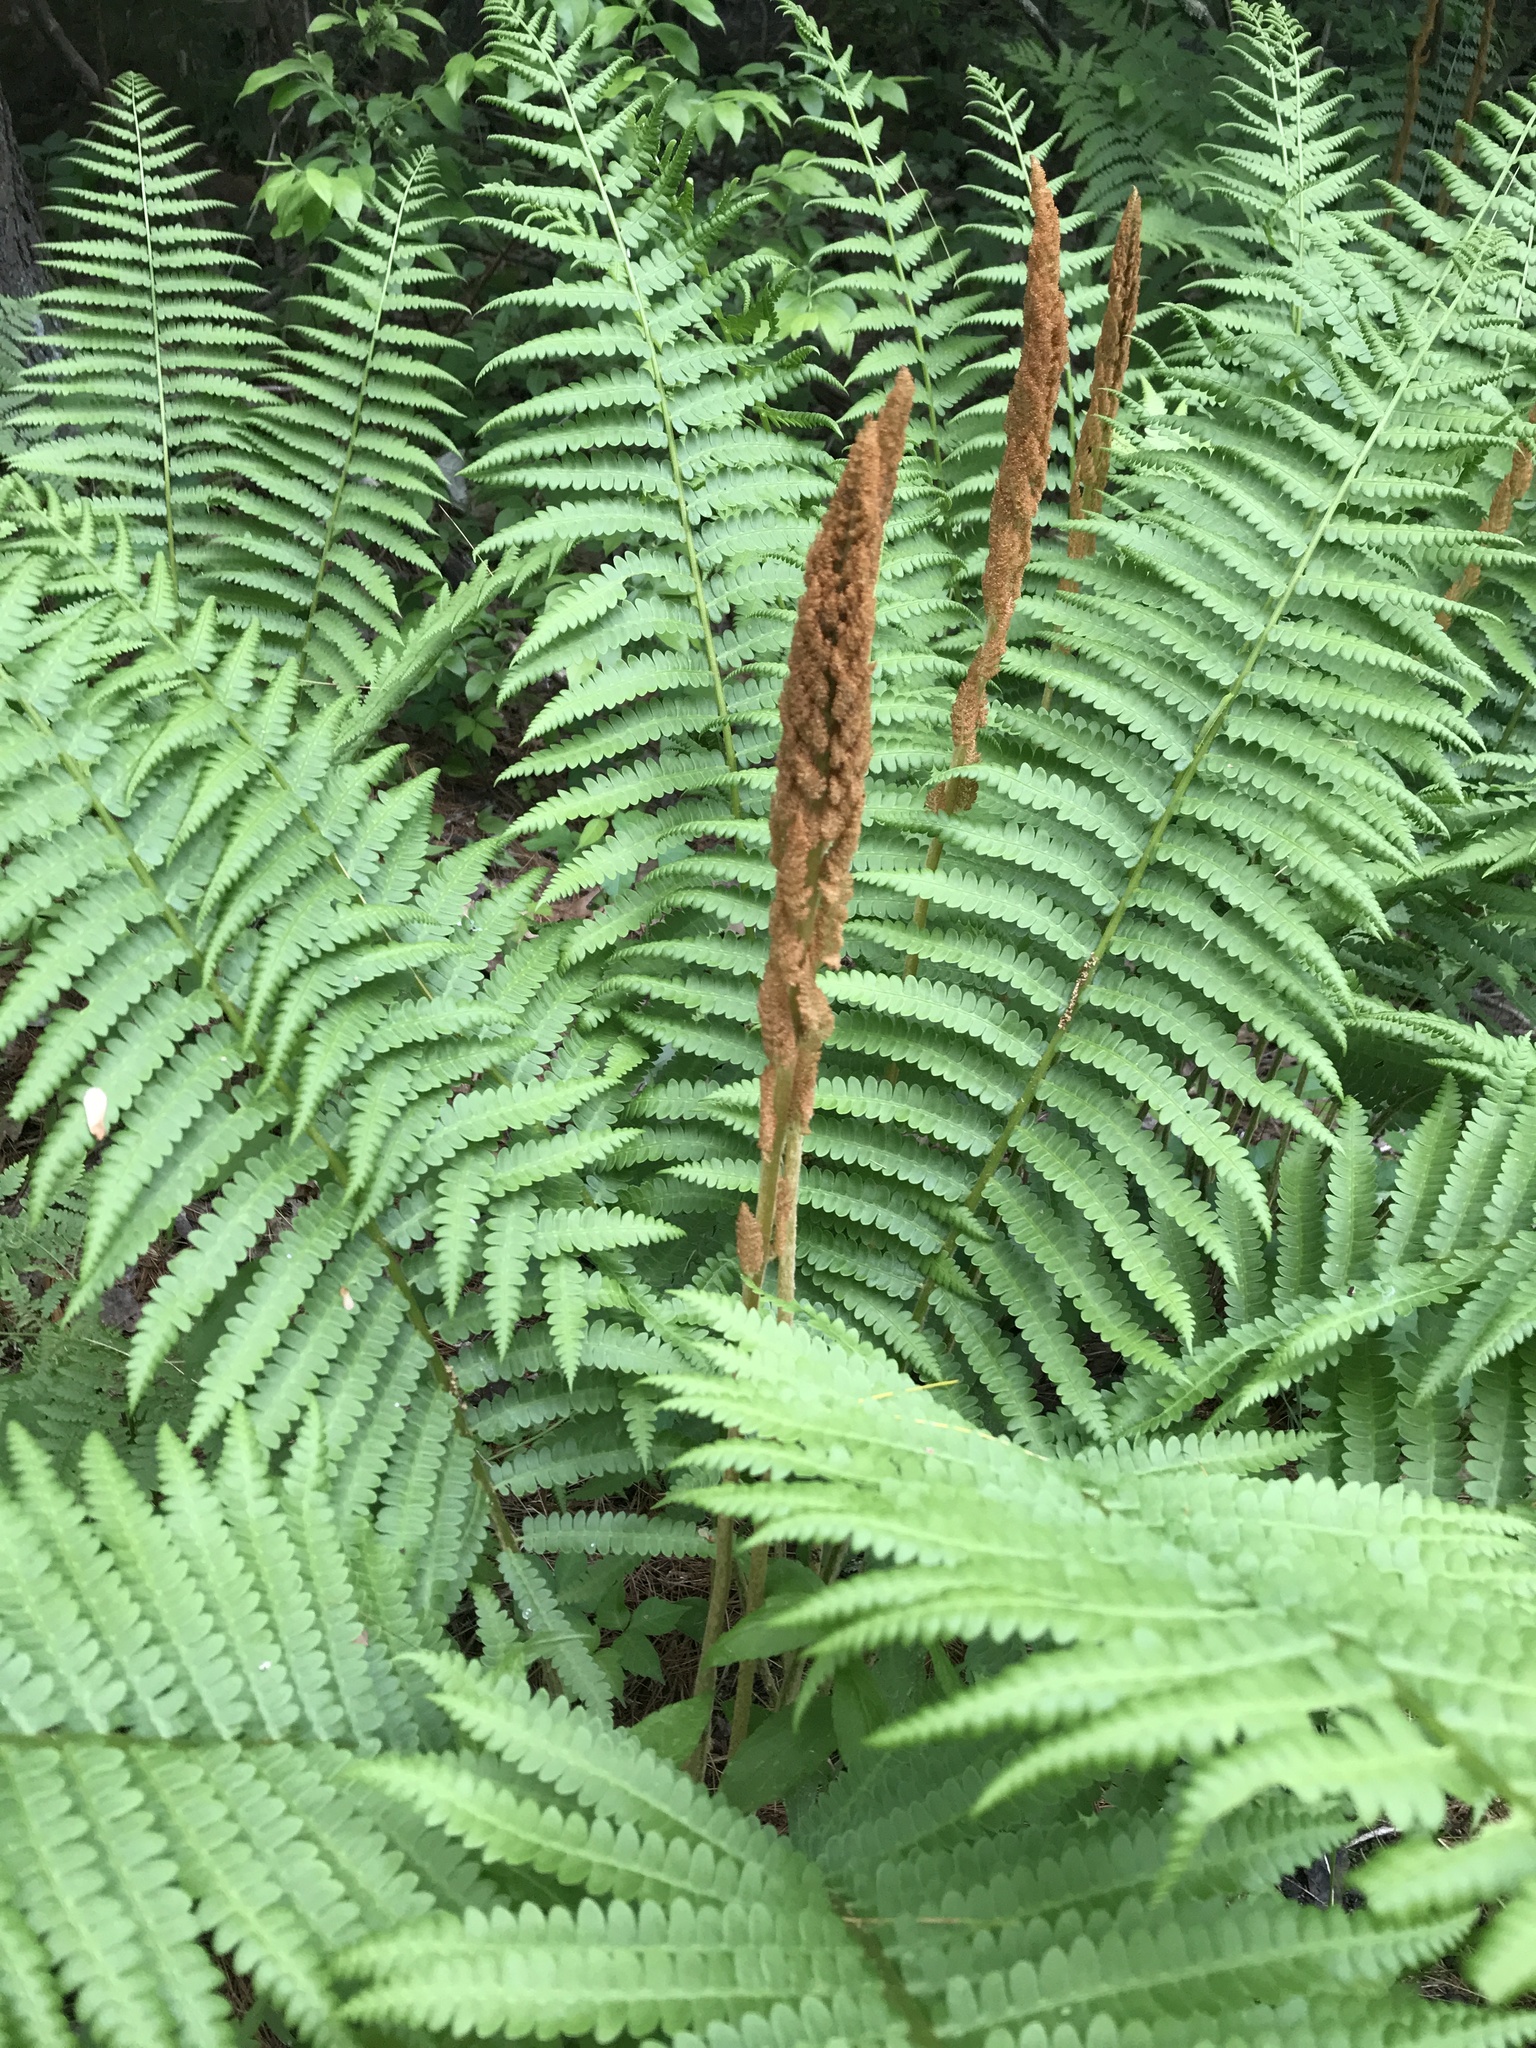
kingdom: Plantae
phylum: Tracheophyta
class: Polypodiopsida
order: Osmundales
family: Osmundaceae
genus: Osmundastrum
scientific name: Osmundastrum cinnamomeum
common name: Cinnamon fern
